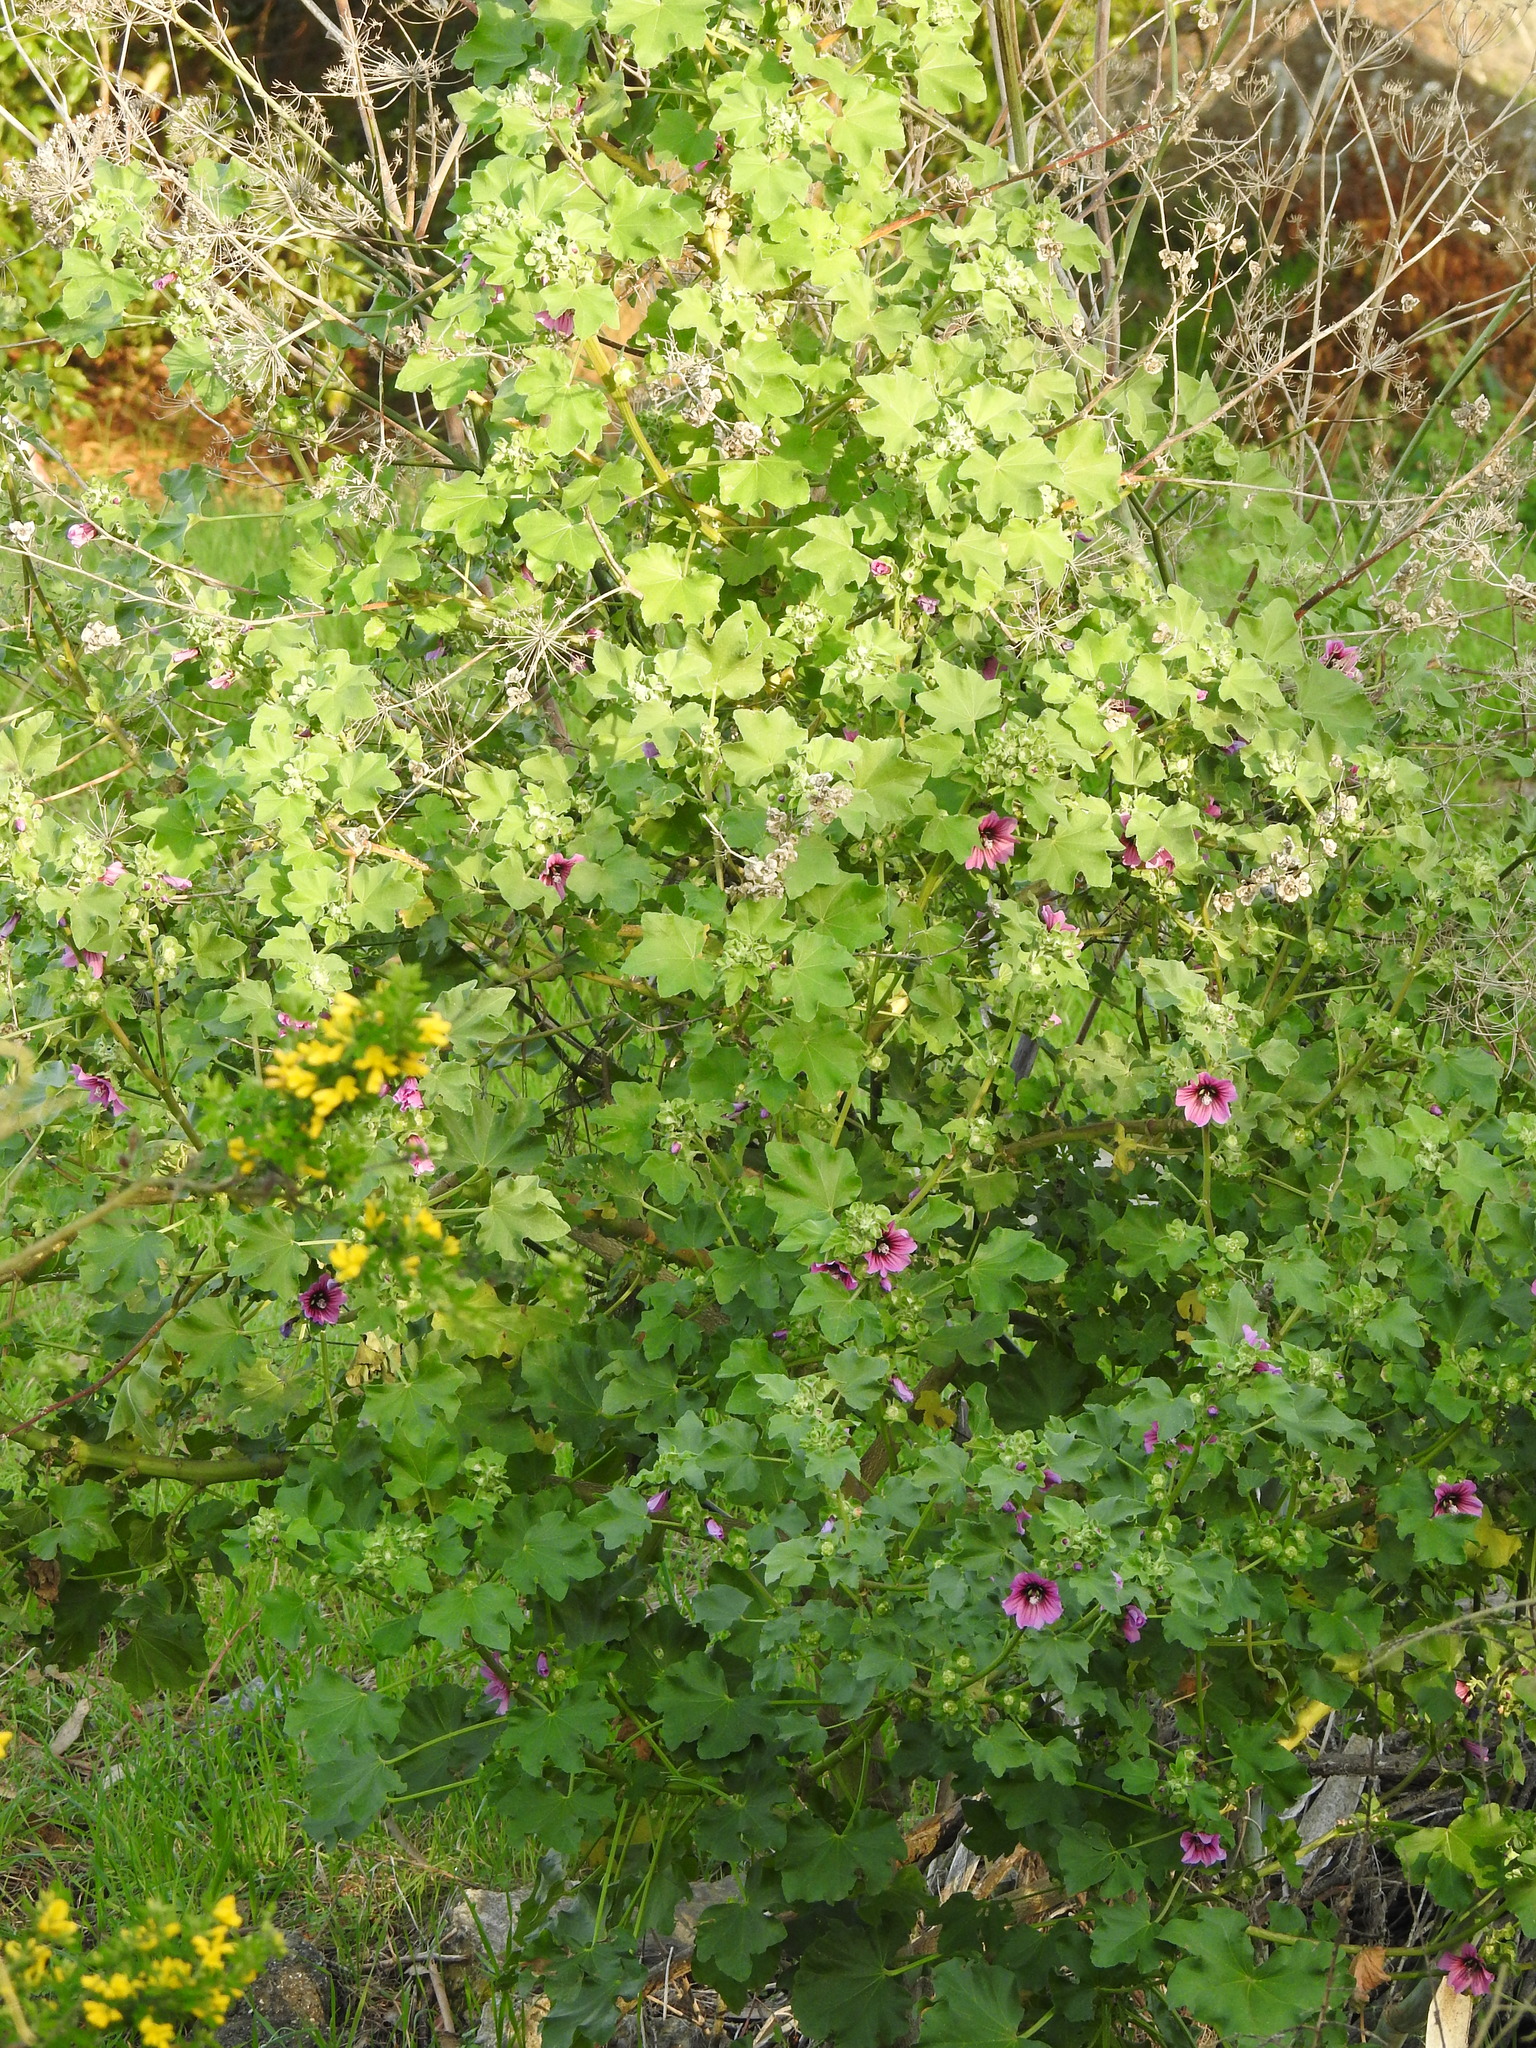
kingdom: Plantae
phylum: Tracheophyta
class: Magnoliopsida
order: Malvales
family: Malvaceae
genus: Malva
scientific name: Malva arborea
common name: Tree mallow
